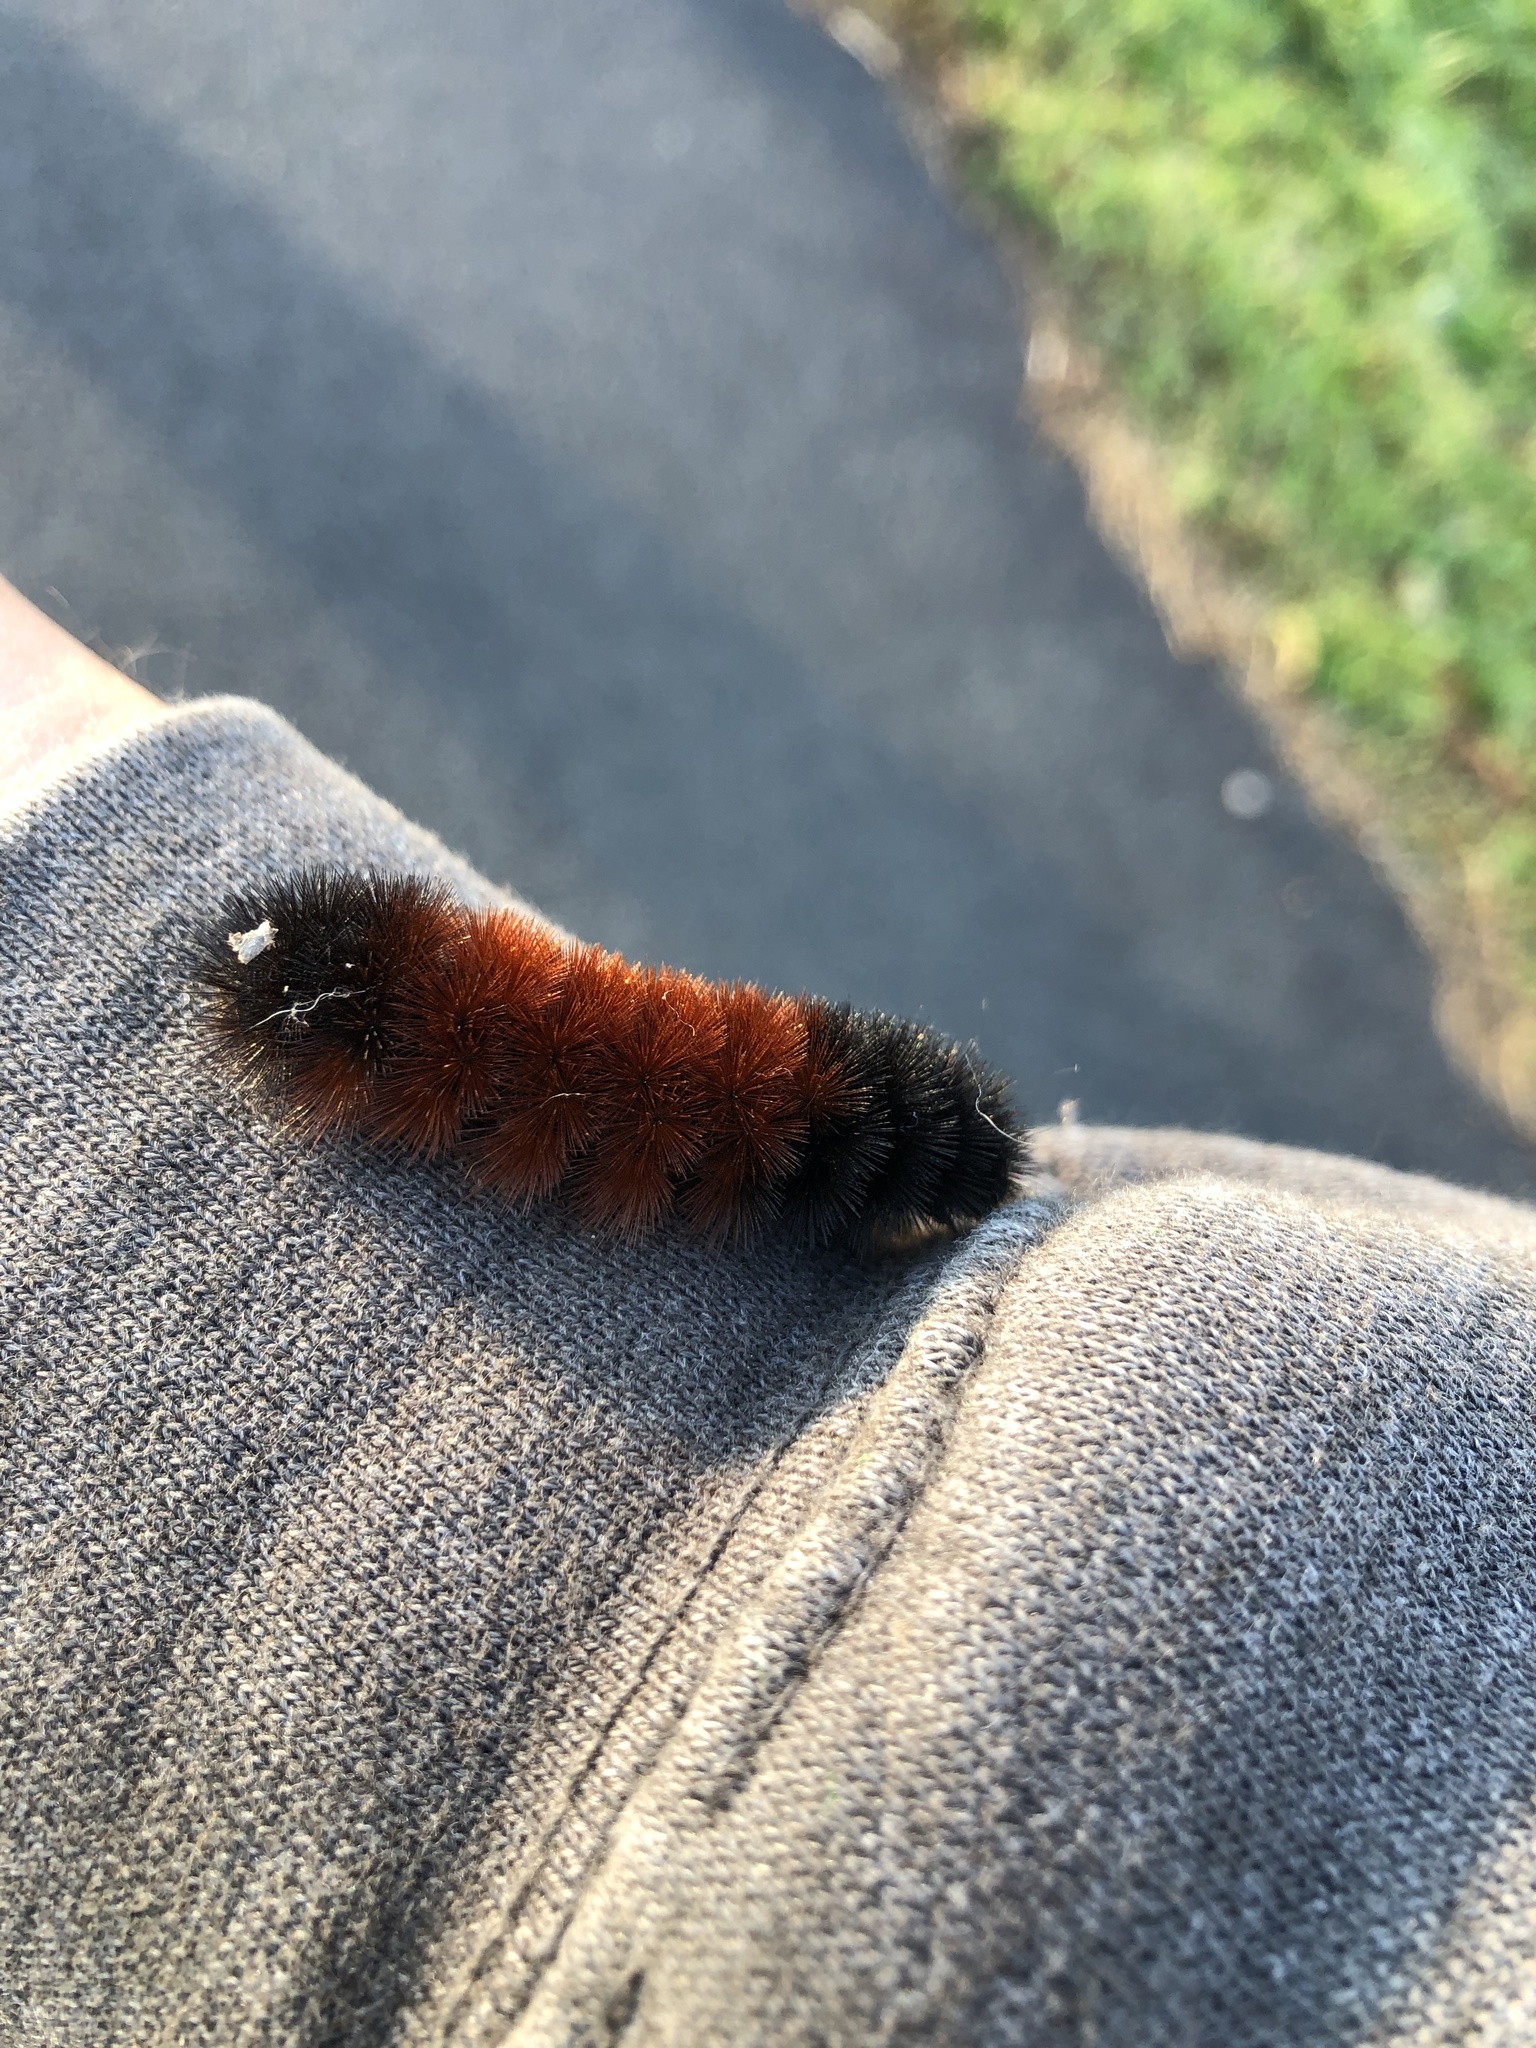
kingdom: Animalia
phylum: Arthropoda
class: Insecta
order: Lepidoptera
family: Erebidae
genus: Pyrrharctia
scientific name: Pyrrharctia isabella
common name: Isabella tiger moth
